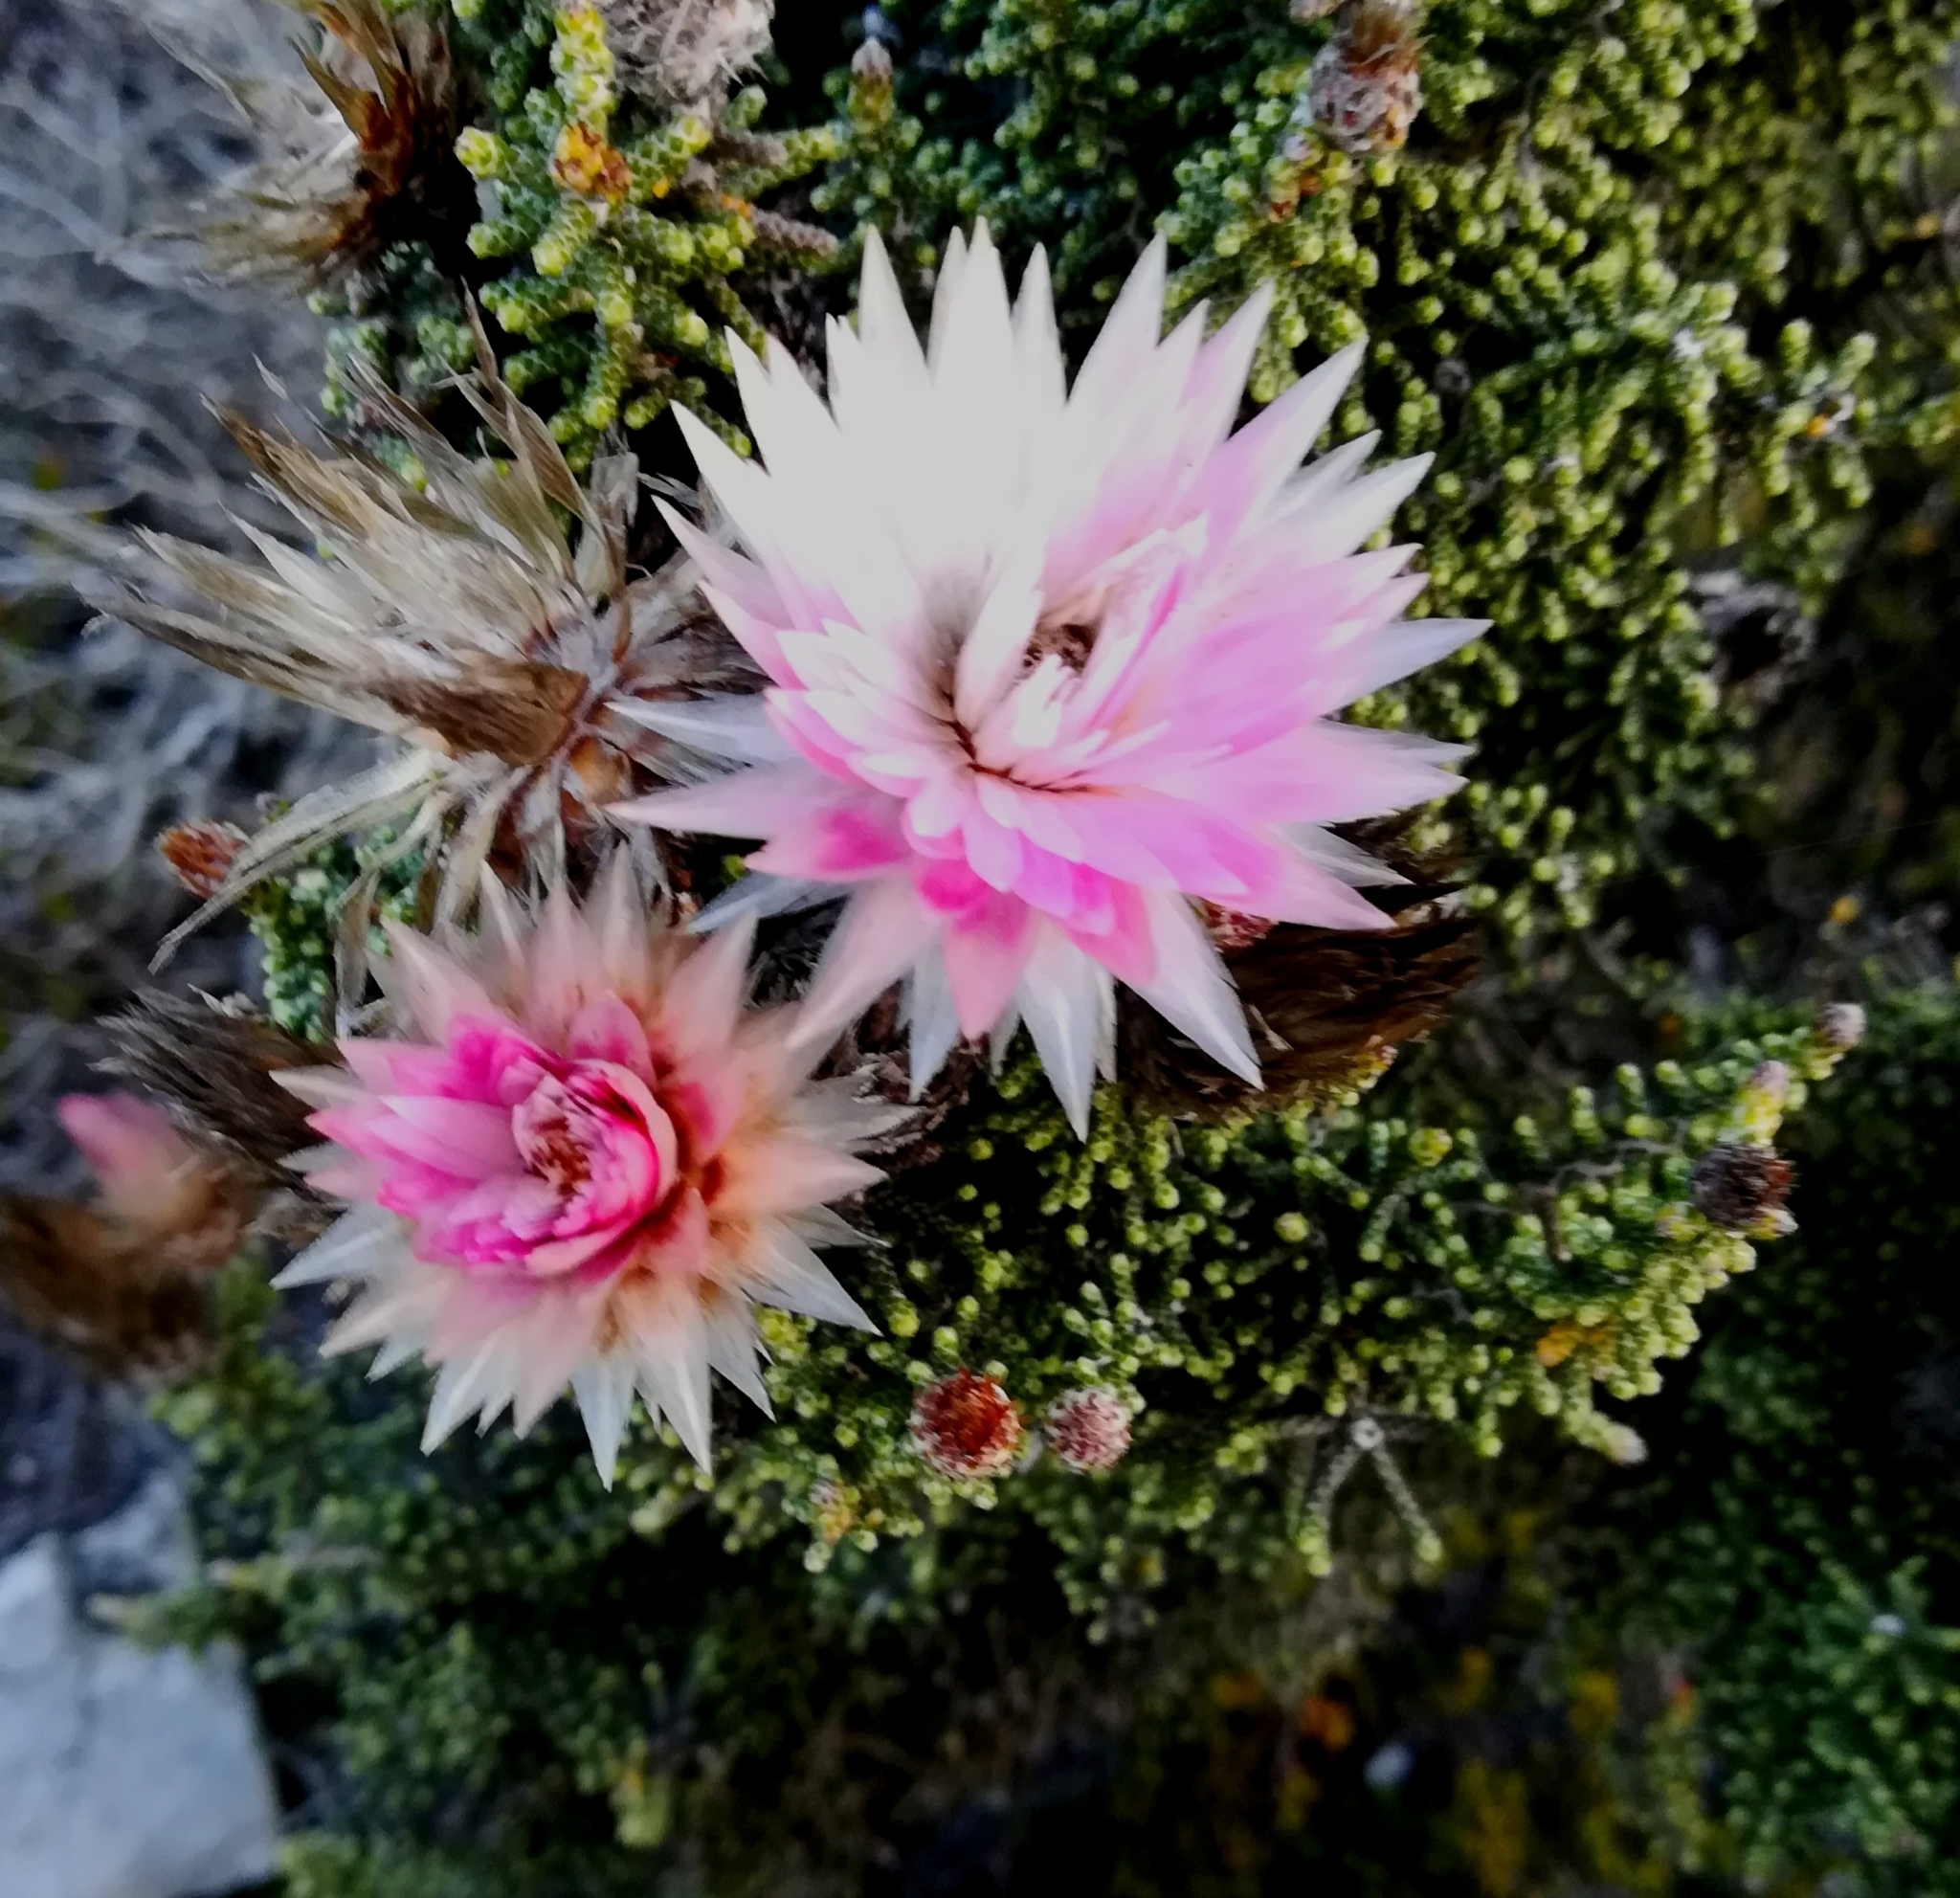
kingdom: Plantae
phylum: Tracheophyta
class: Magnoliopsida
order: Asterales
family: Asteraceae
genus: Phaenocoma
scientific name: Phaenocoma prolifera
